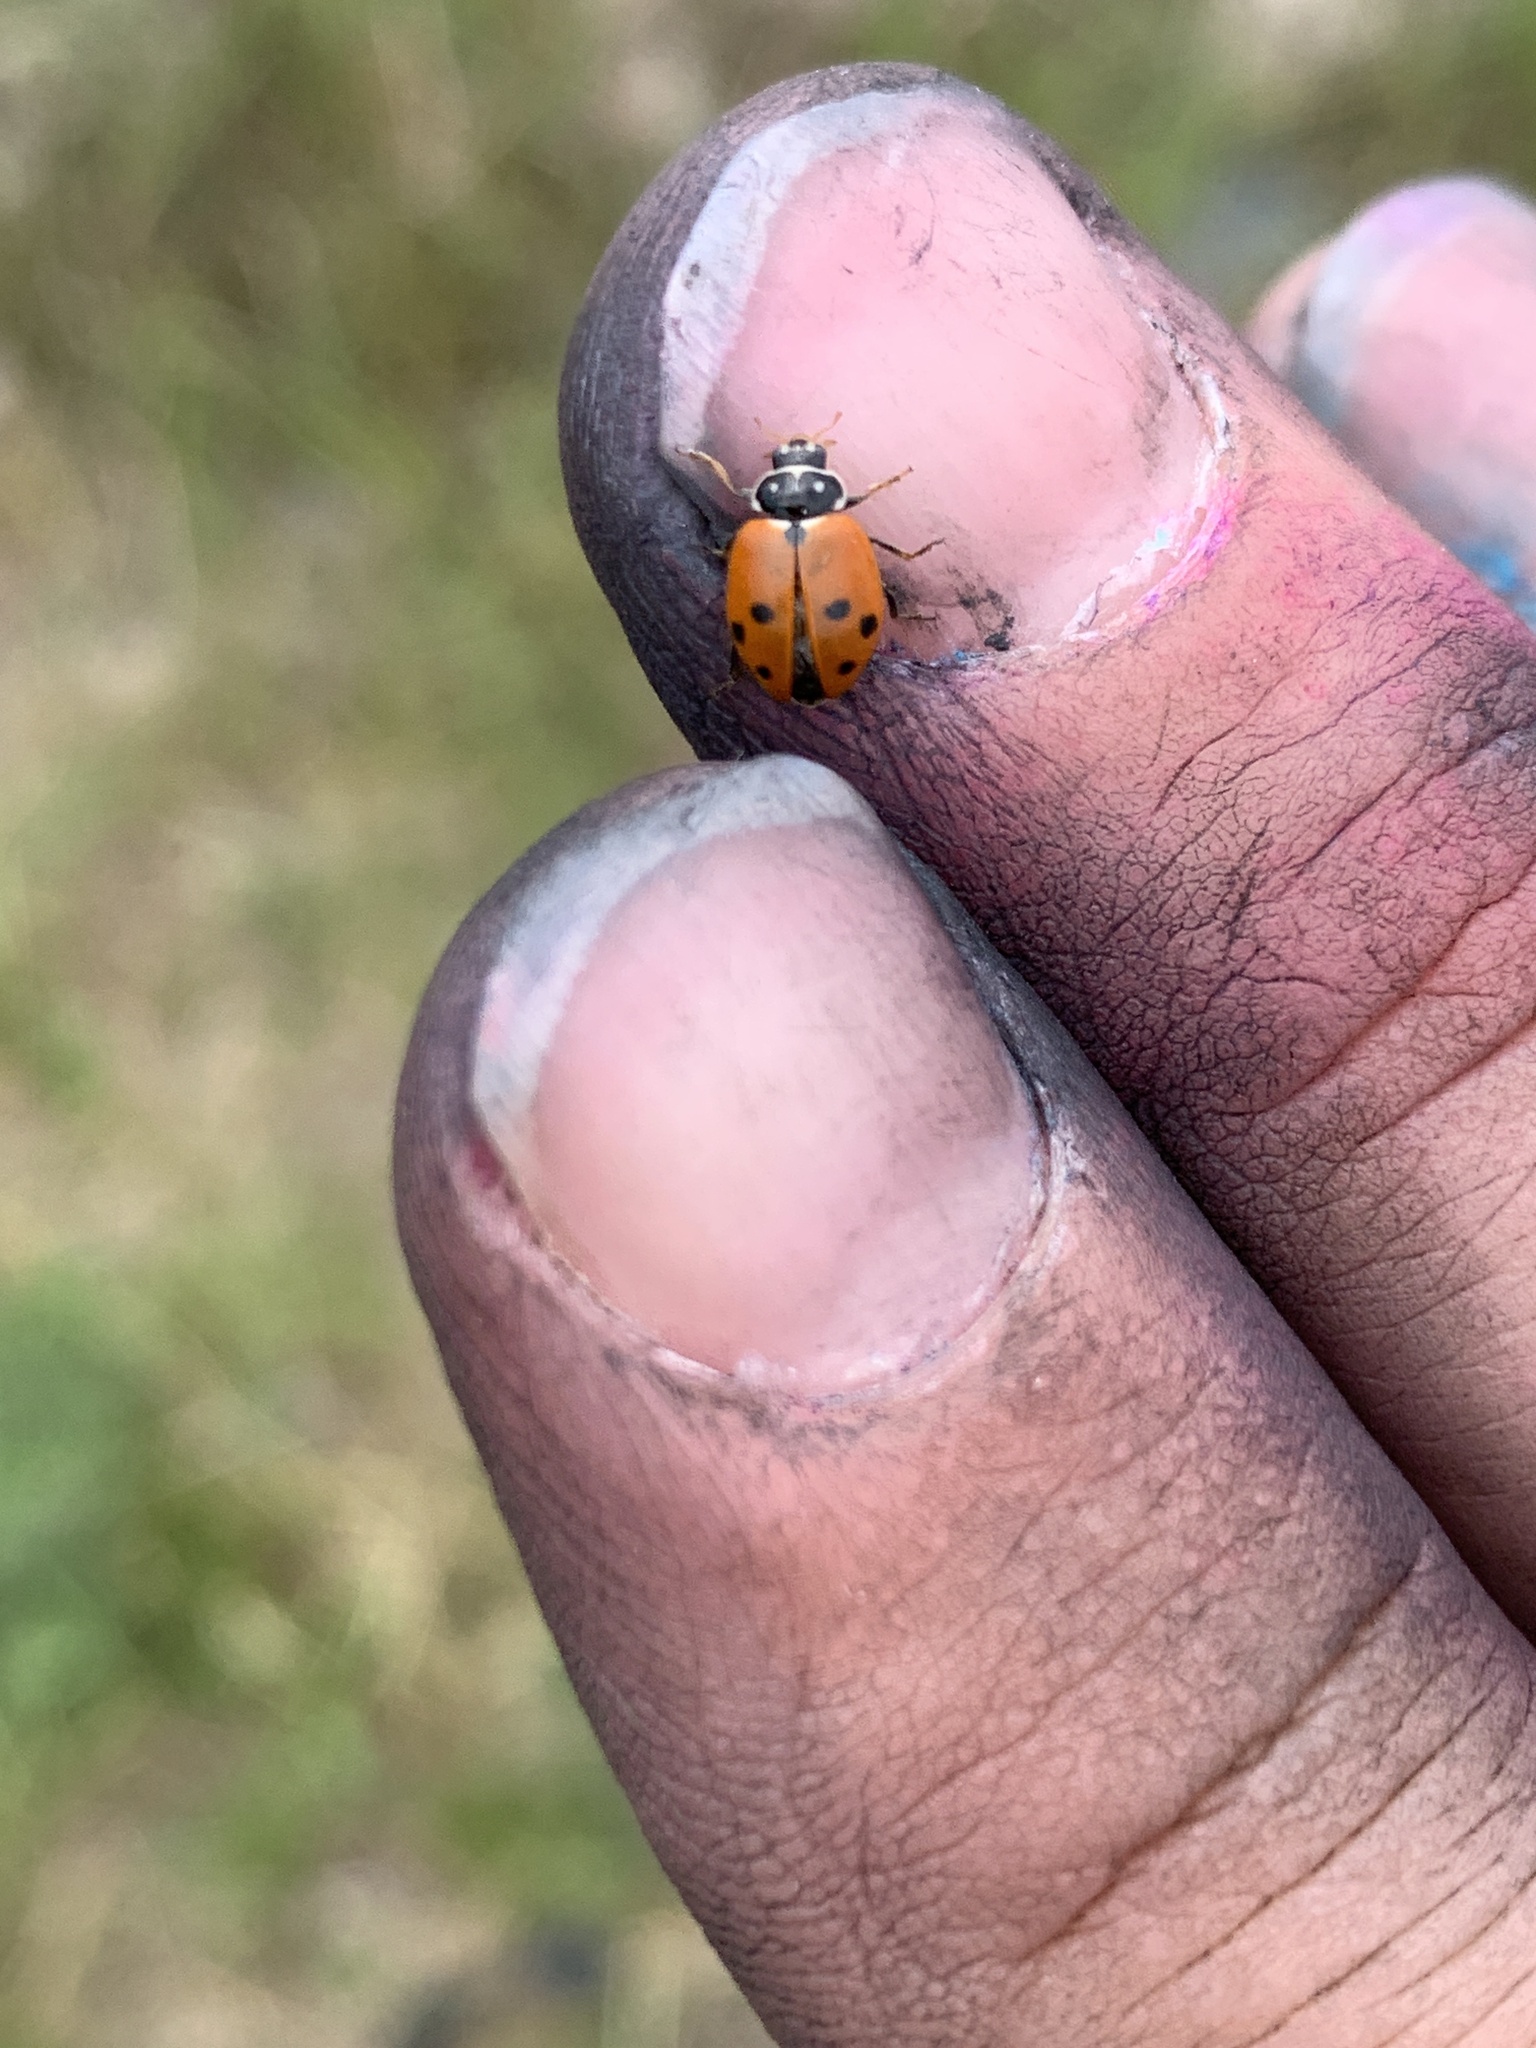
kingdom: Animalia
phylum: Arthropoda
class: Insecta
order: Coleoptera
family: Coccinellidae
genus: Hippodamia
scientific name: Hippodamia variegata
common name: Ladybird beetle
